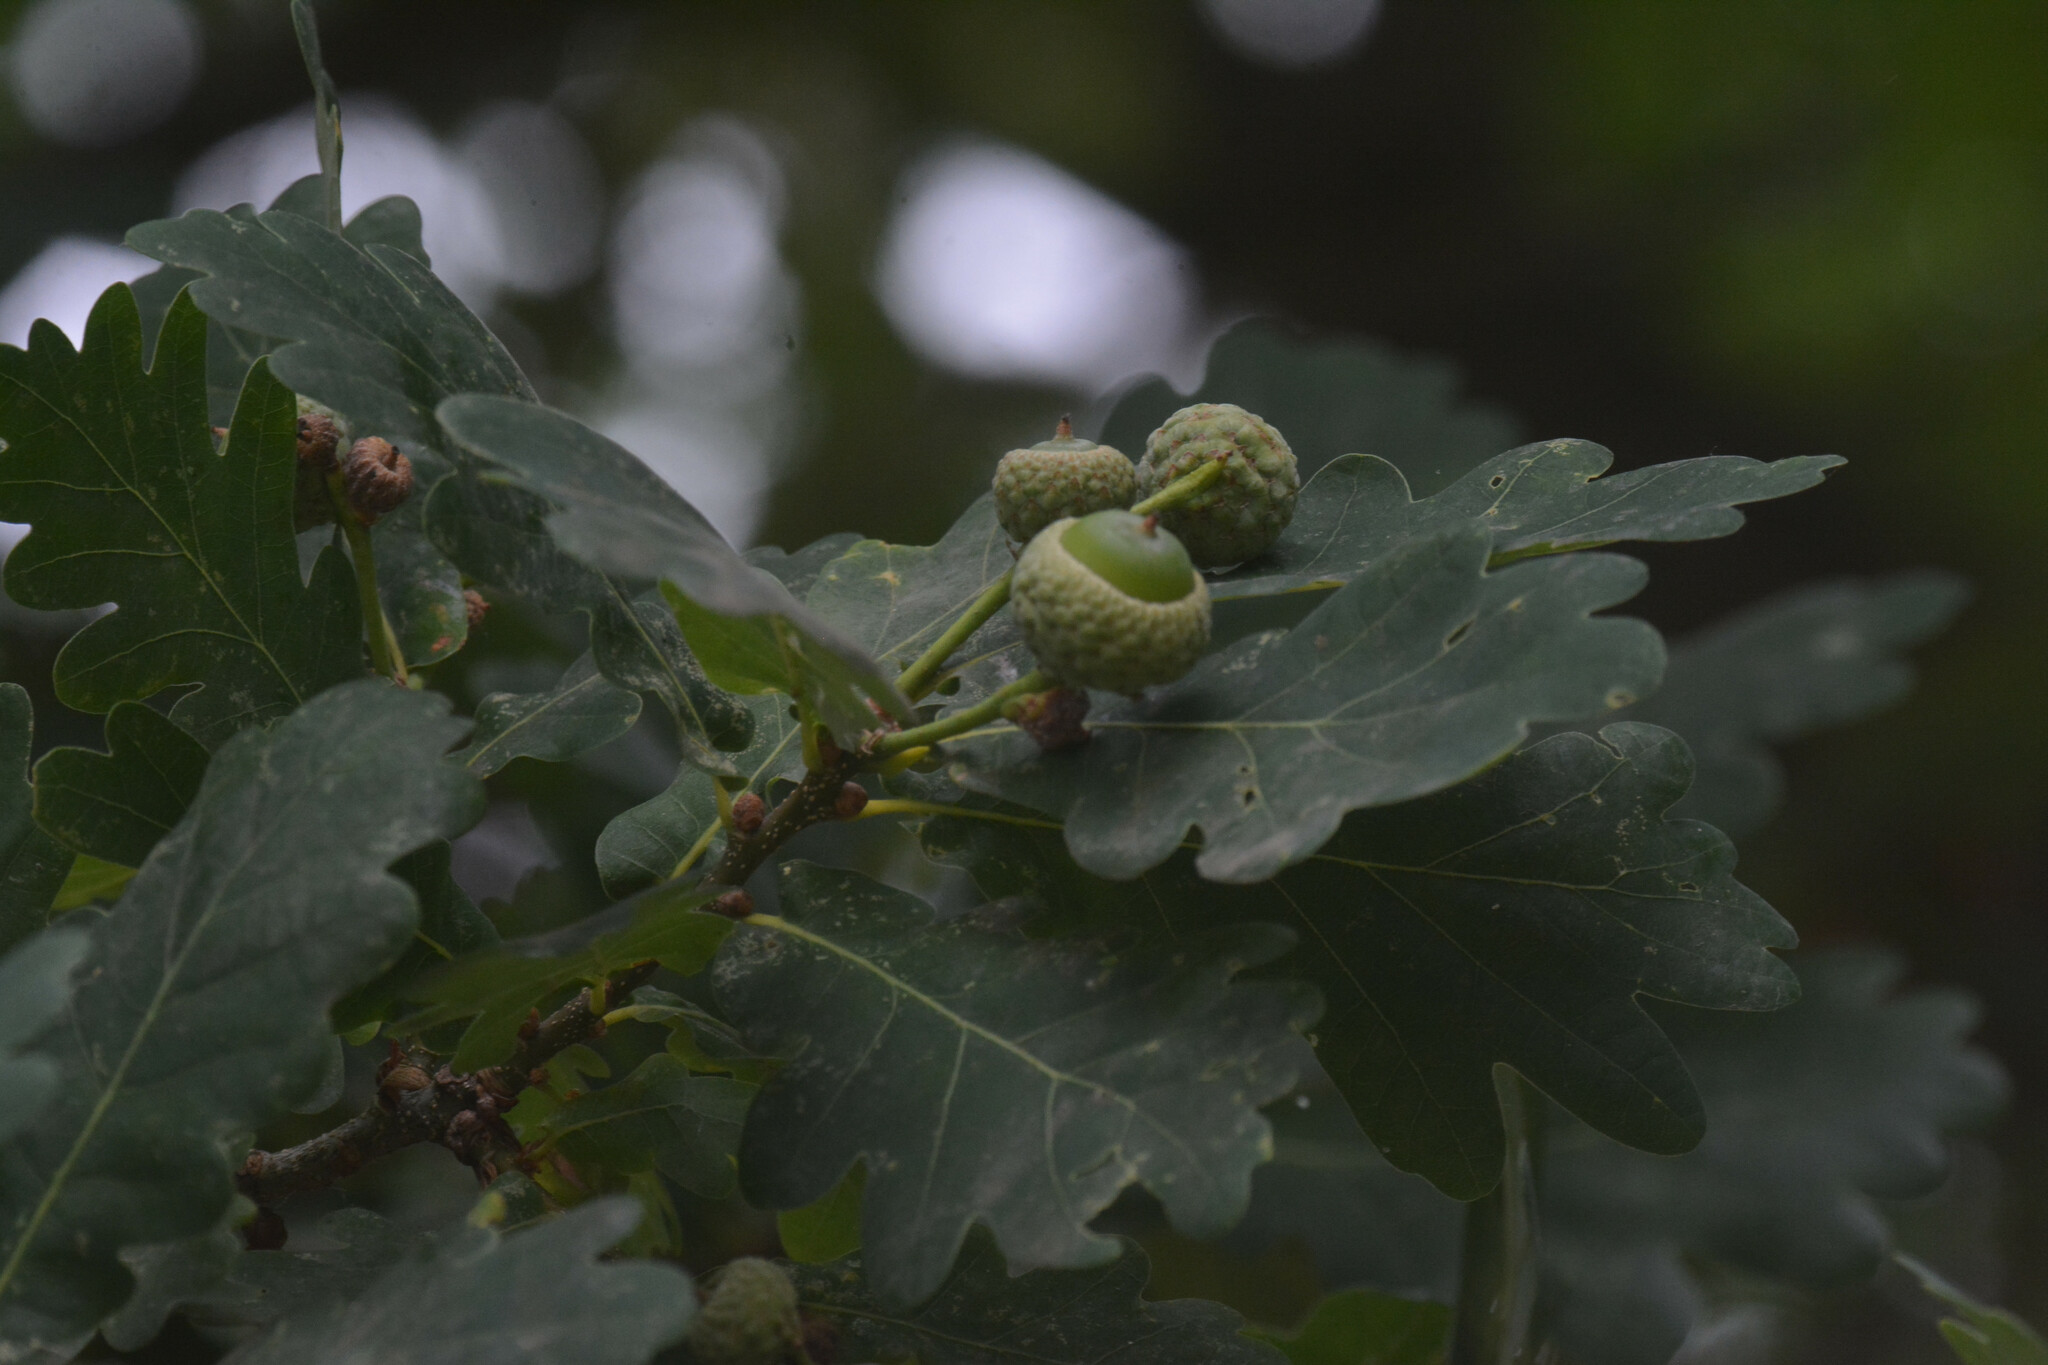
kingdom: Plantae
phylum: Tracheophyta
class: Magnoliopsida
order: Fagales
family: Fagaceae
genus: Quercus
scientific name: Quercus robur
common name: Pedunculate oak
